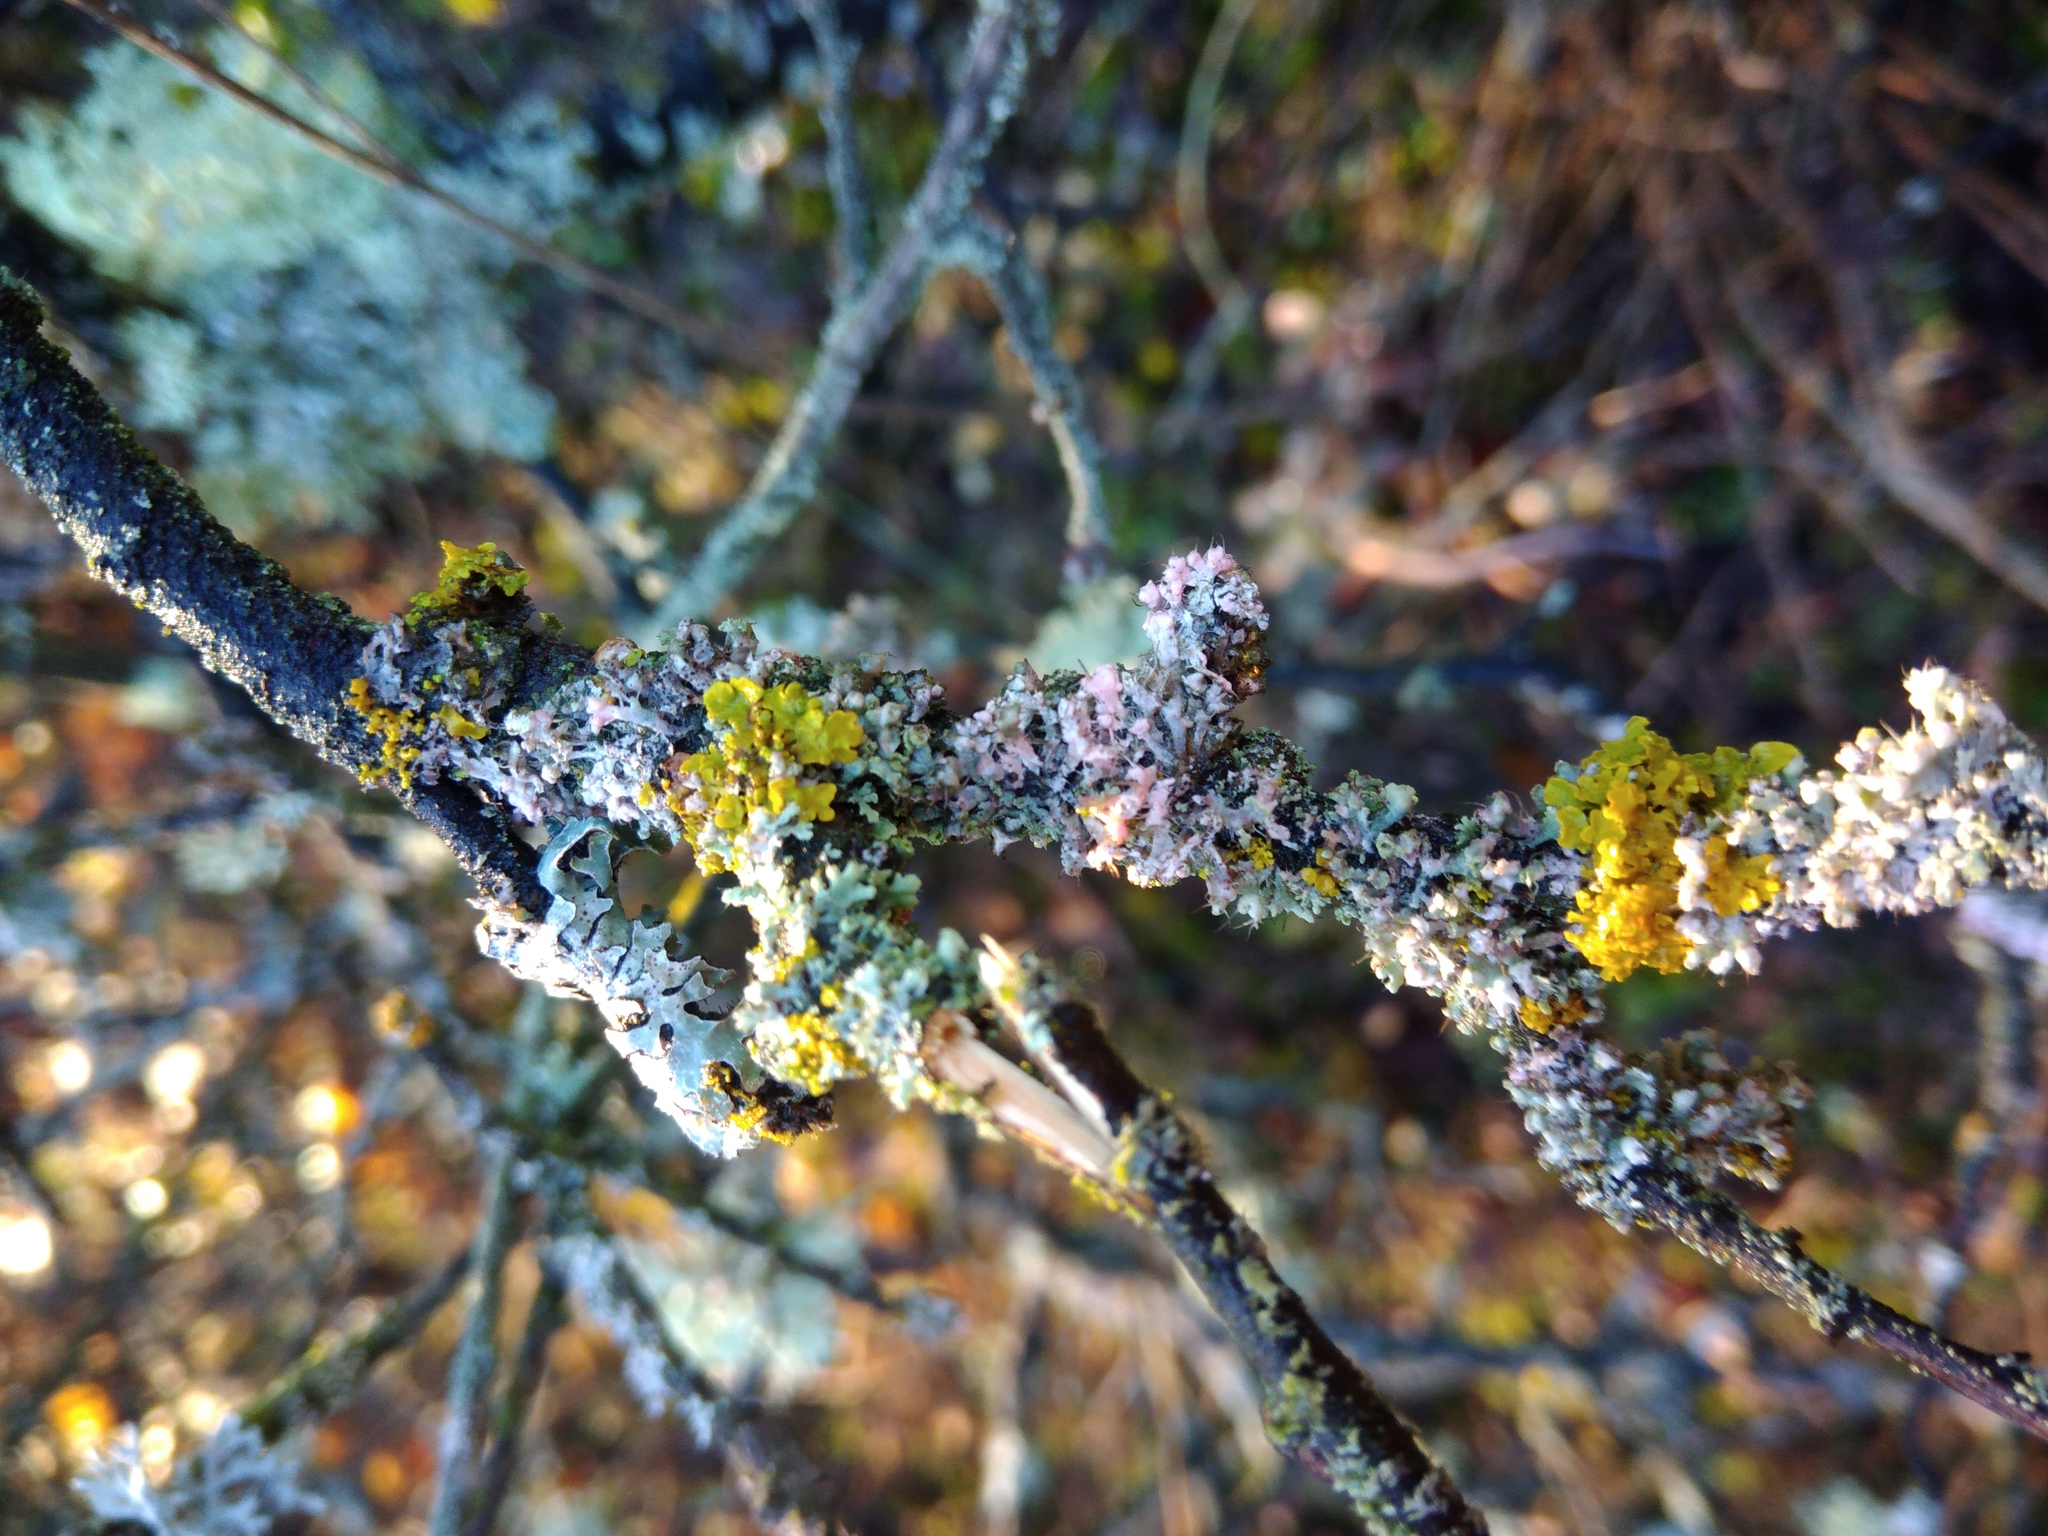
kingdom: Fungi
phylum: Basidiomycota
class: Agaricomycetes
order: Corticiales
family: Corticiaceae
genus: Laetisaria
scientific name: Laetisaria lichenicola
